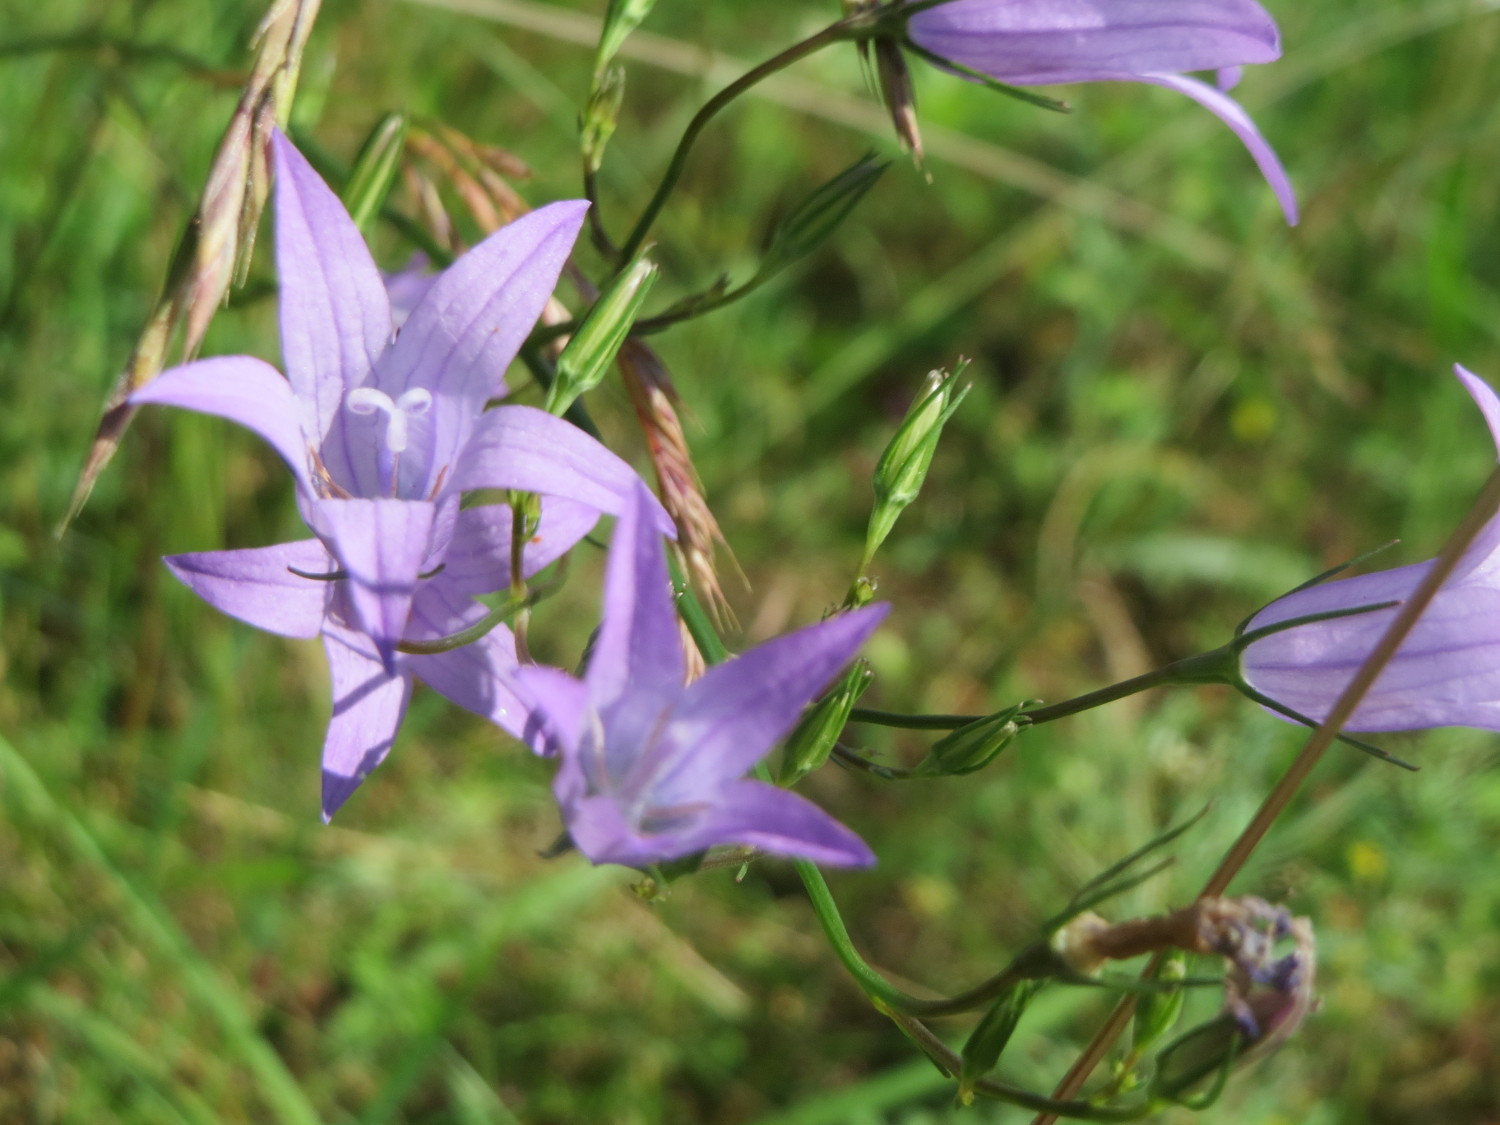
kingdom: Plantae
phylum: Tracheophyta
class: Magnoliopsida
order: Asterales
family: Campanulaceae
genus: Campanula
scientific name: Campanula rapunculus
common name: Rampion bellflower
